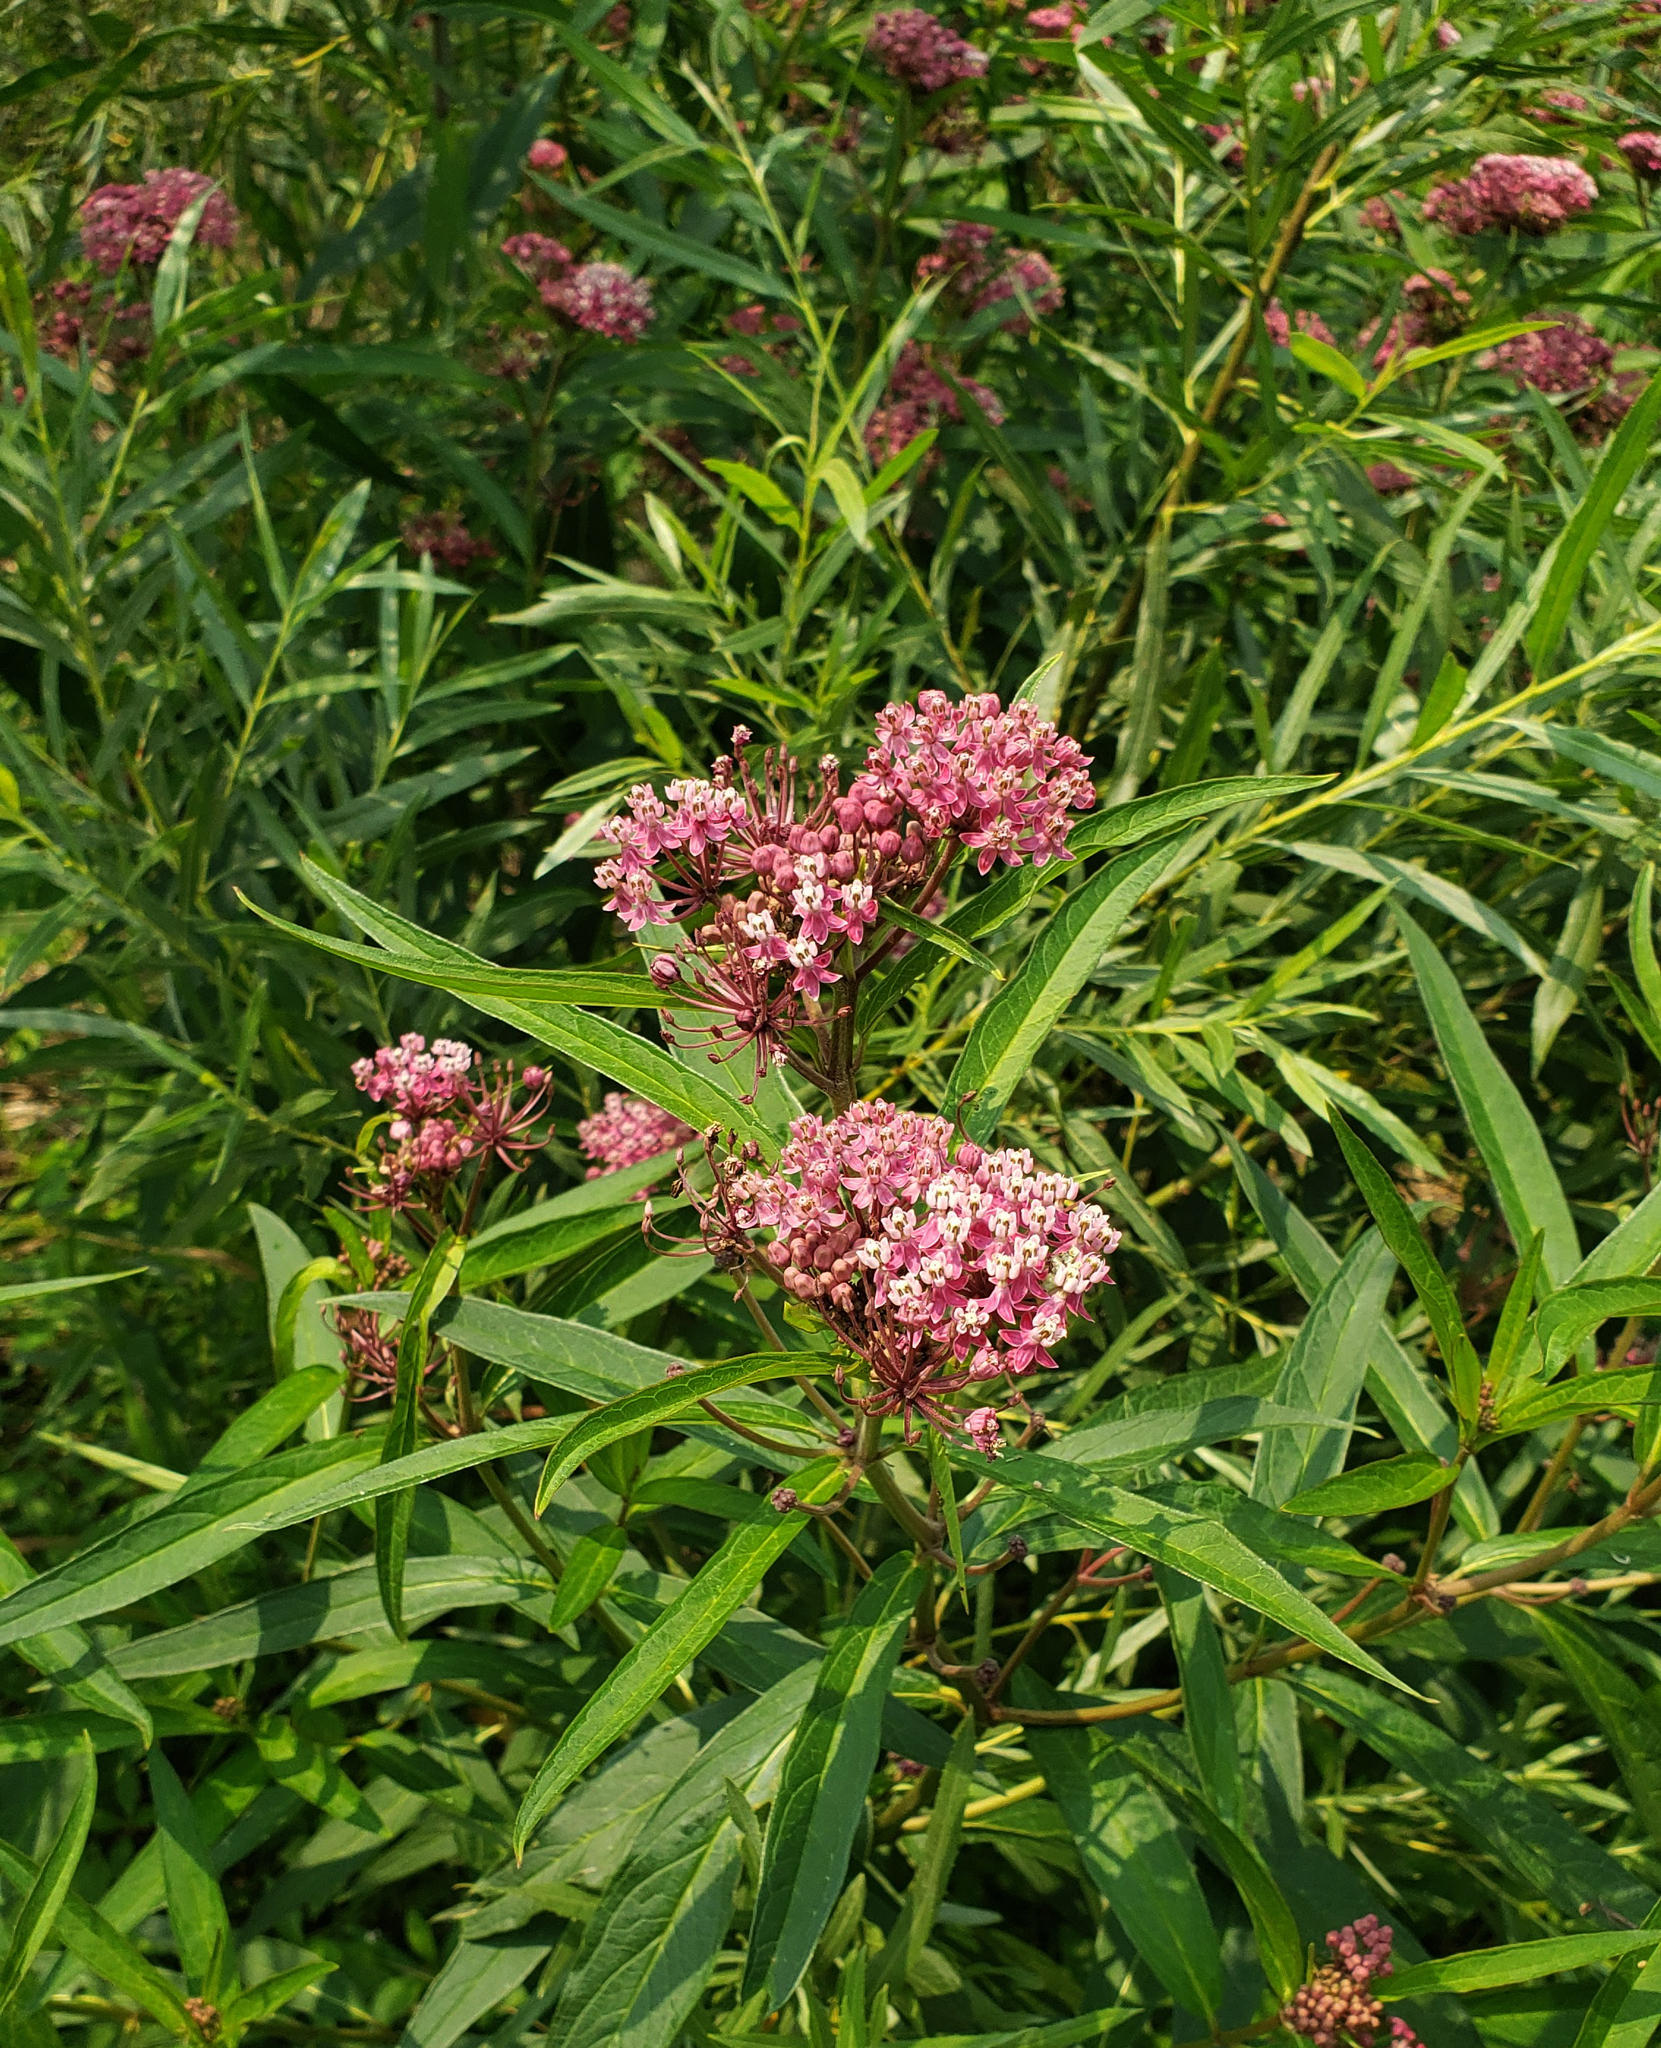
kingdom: Plantae
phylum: Tracheophyta
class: Magnoliopsida
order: Gentianales
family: Apocynaceae
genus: Asclepias
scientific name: Asclepias incarnata
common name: Swamp milkweed
